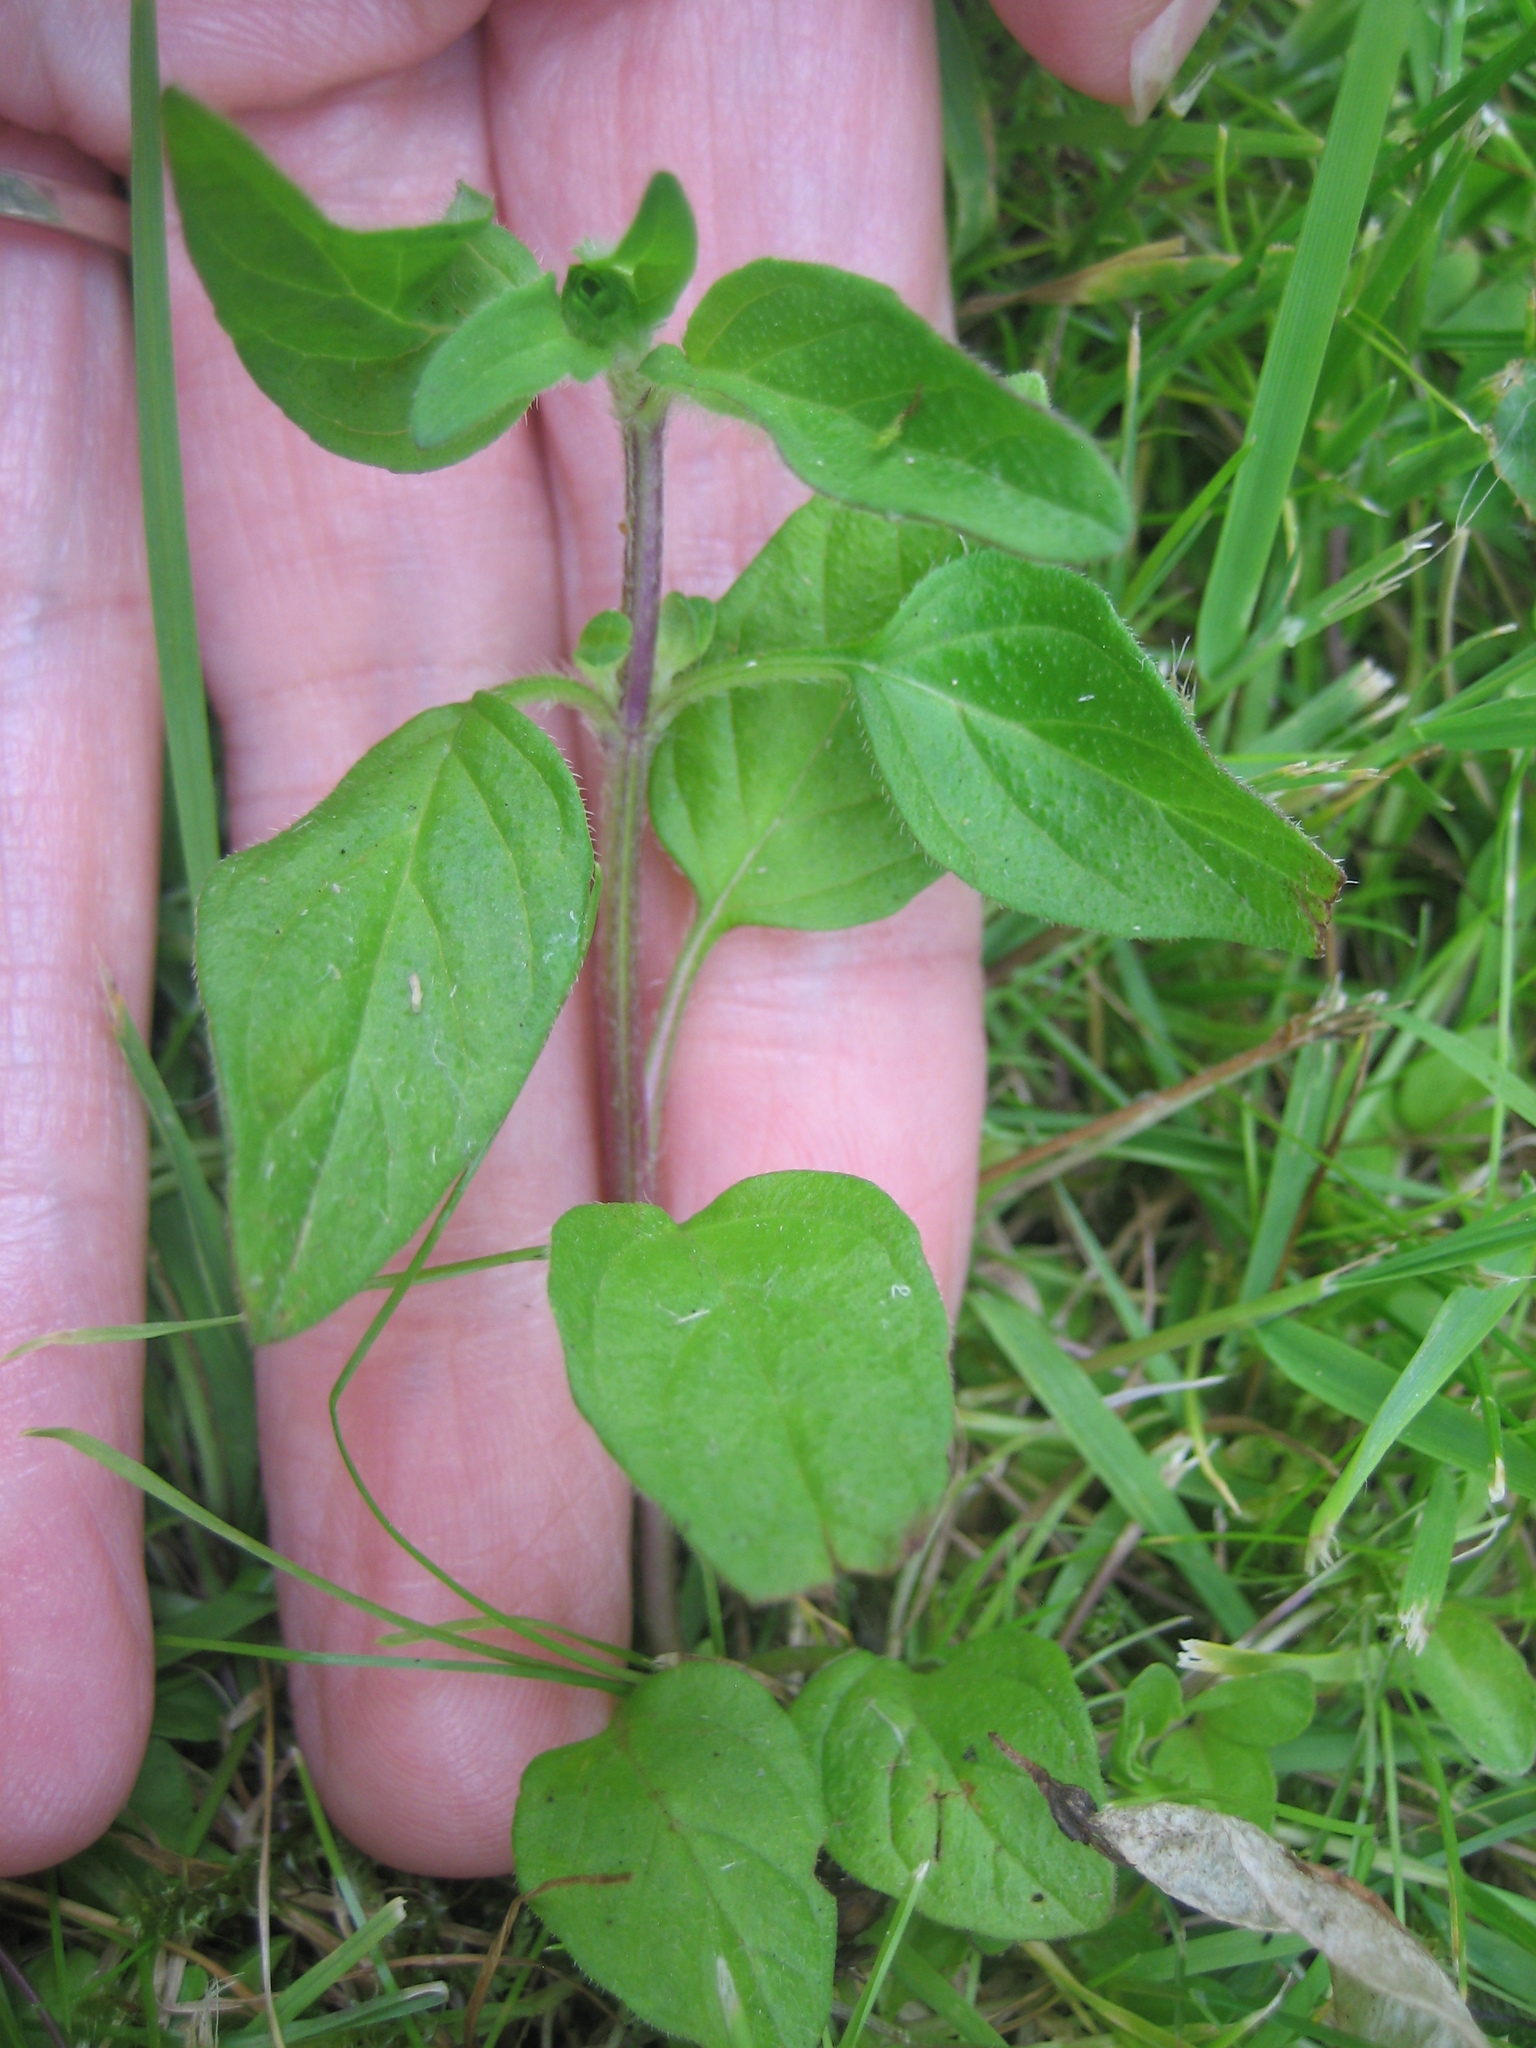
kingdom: Plantae
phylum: Tracheophyta
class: Magnoliopsida
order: Lamiales
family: Lamiaceae
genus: Prunella
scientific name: Prunella vulgaris
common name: Heal-all
